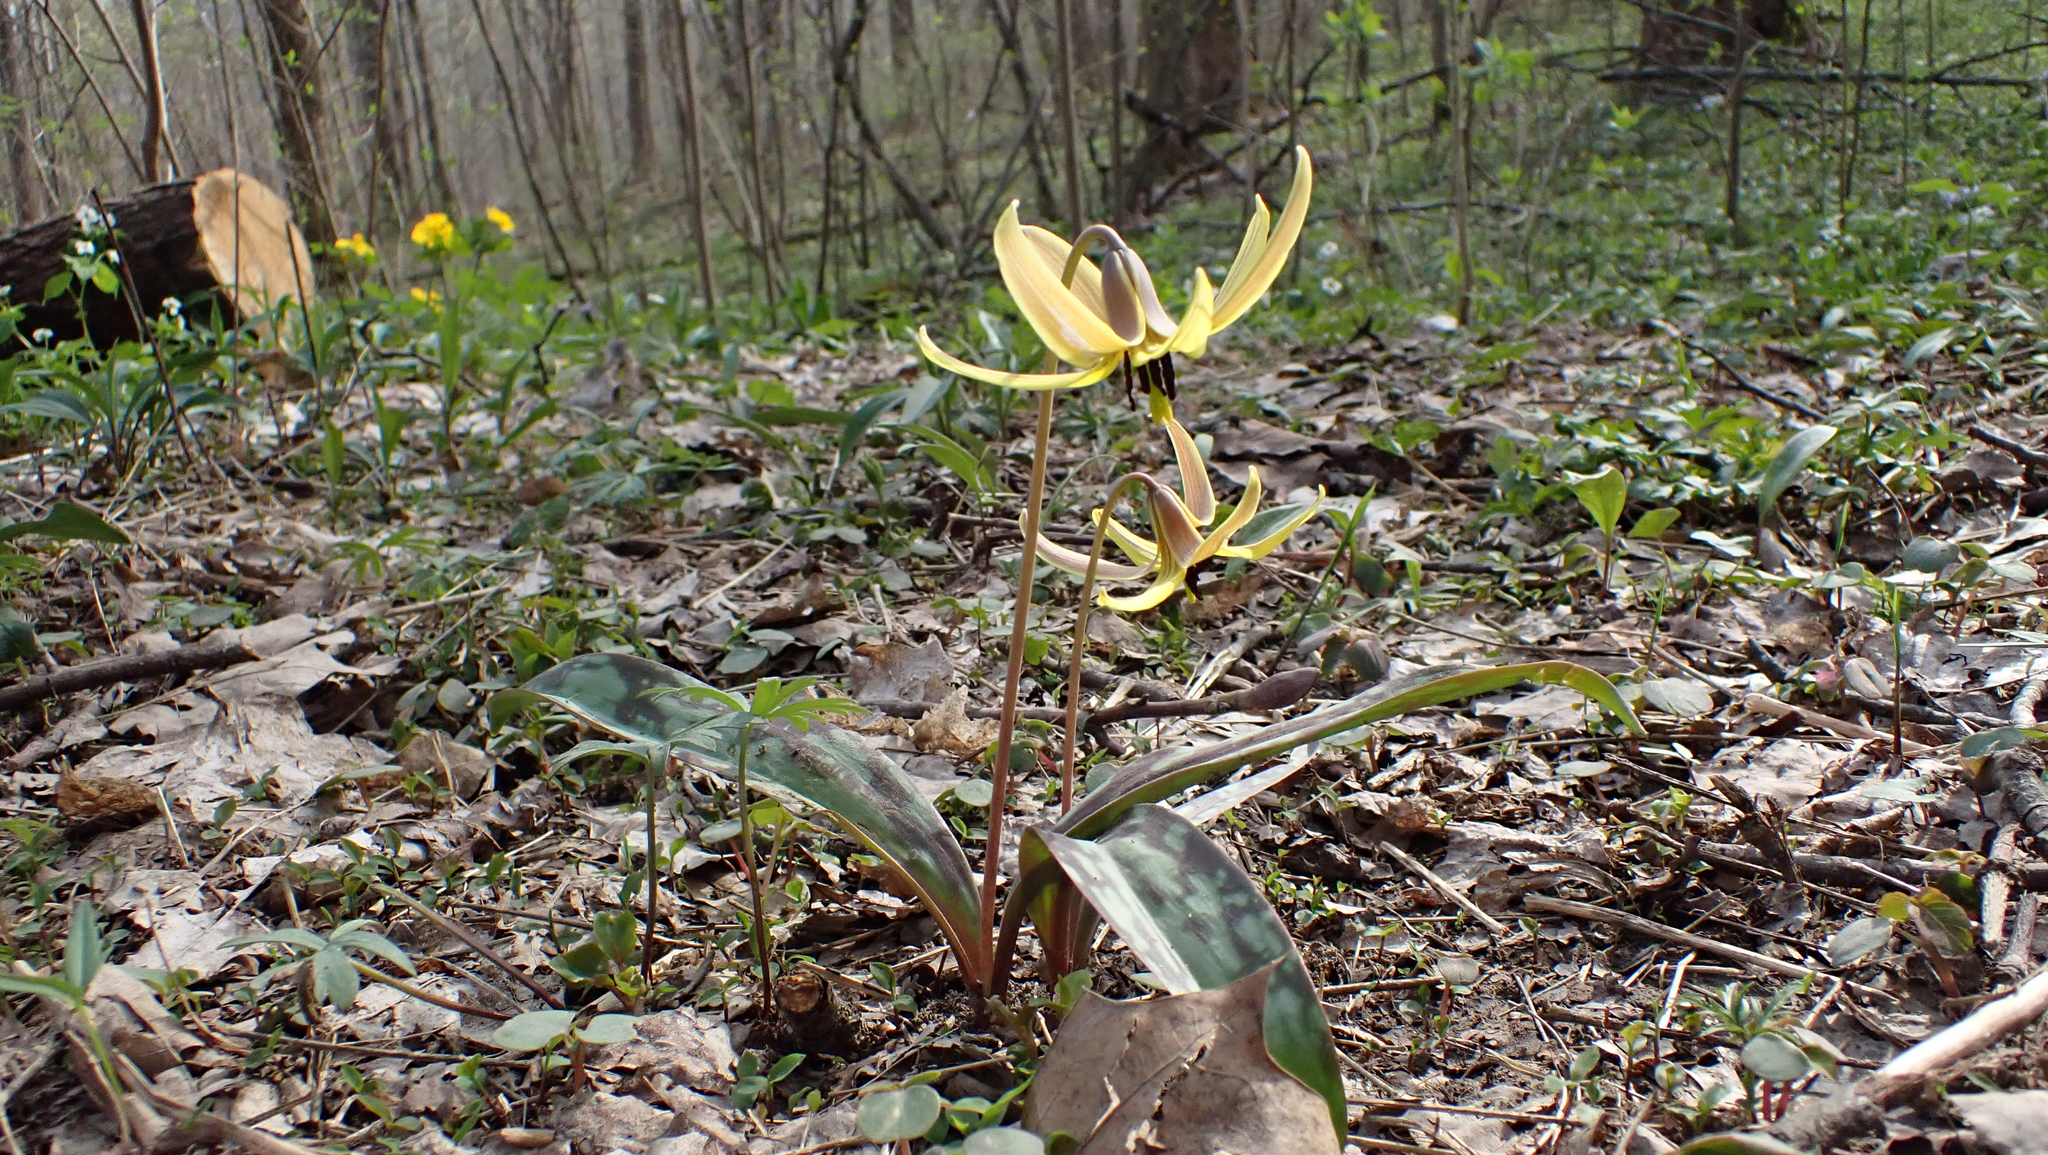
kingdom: Plantae
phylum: Tracheophyta
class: Liliopsida
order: Liliales
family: Liliaceae
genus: Erythronium
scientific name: Erythronium americanum
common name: Yellow adder's-tongue
